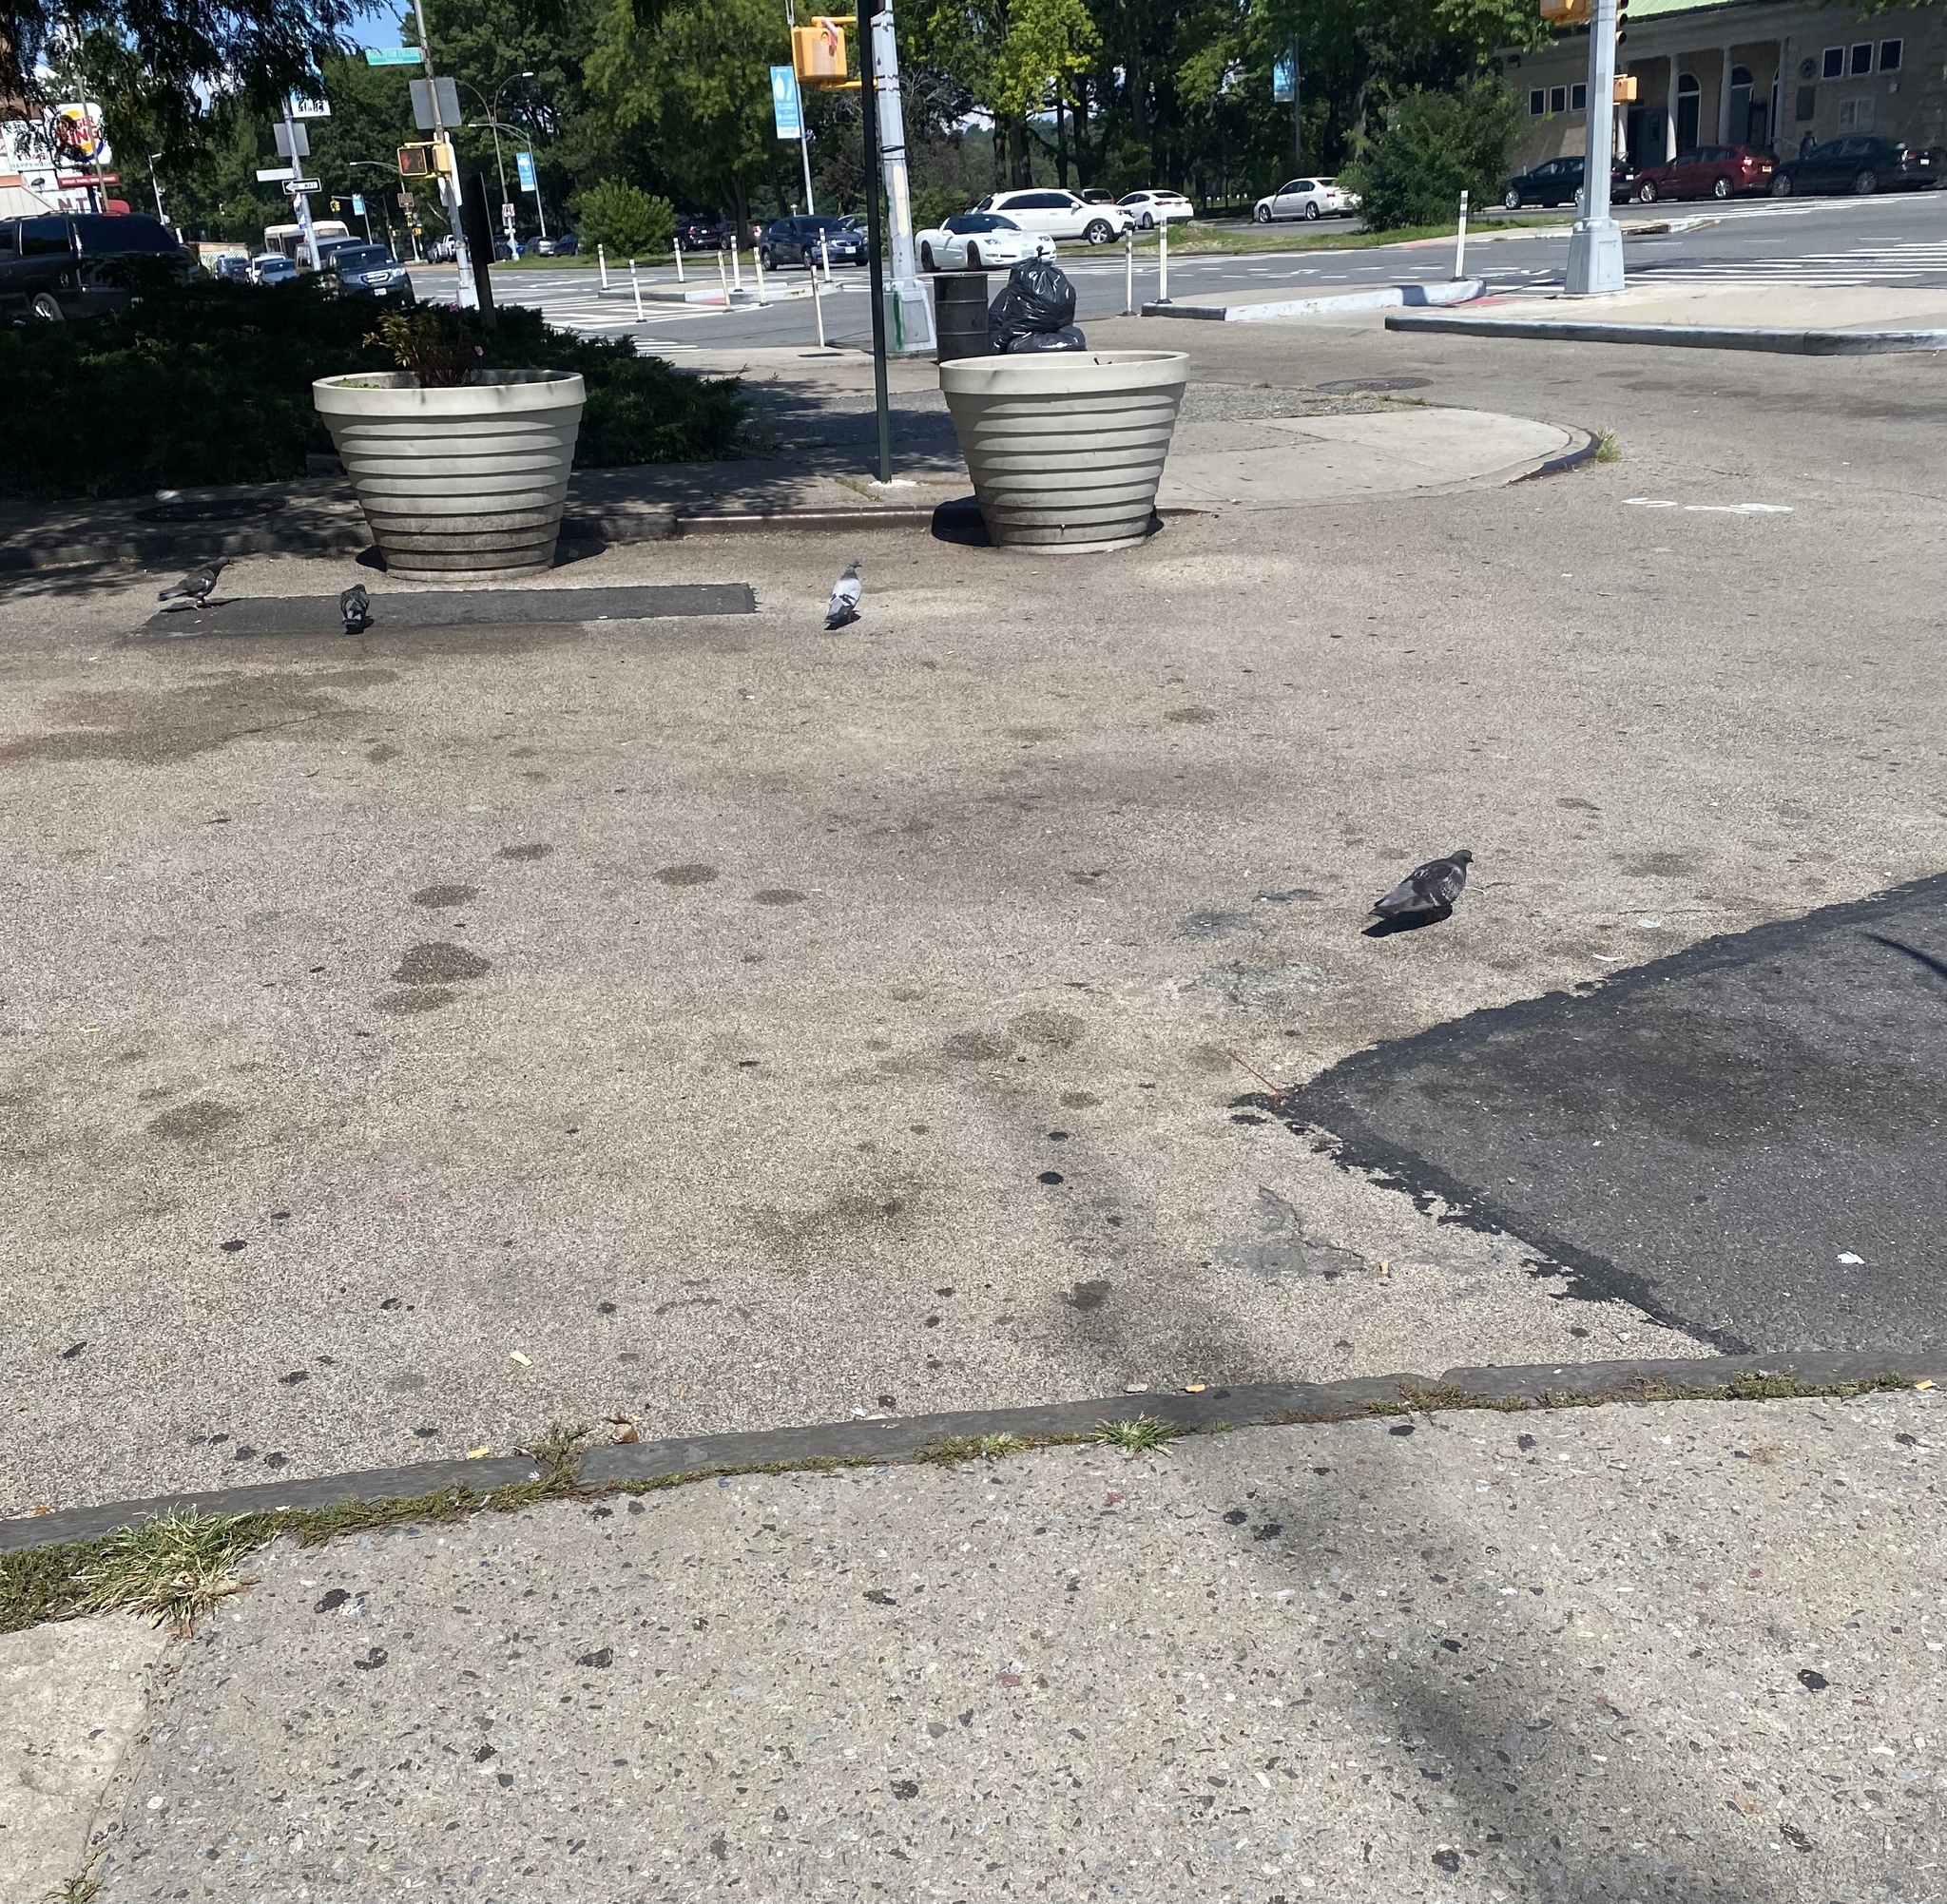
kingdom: Animalia
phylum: Chordata
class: Aves
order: Columbiformes
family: Columbidae
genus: Columba
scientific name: Columba livia
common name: Rock pigeon
